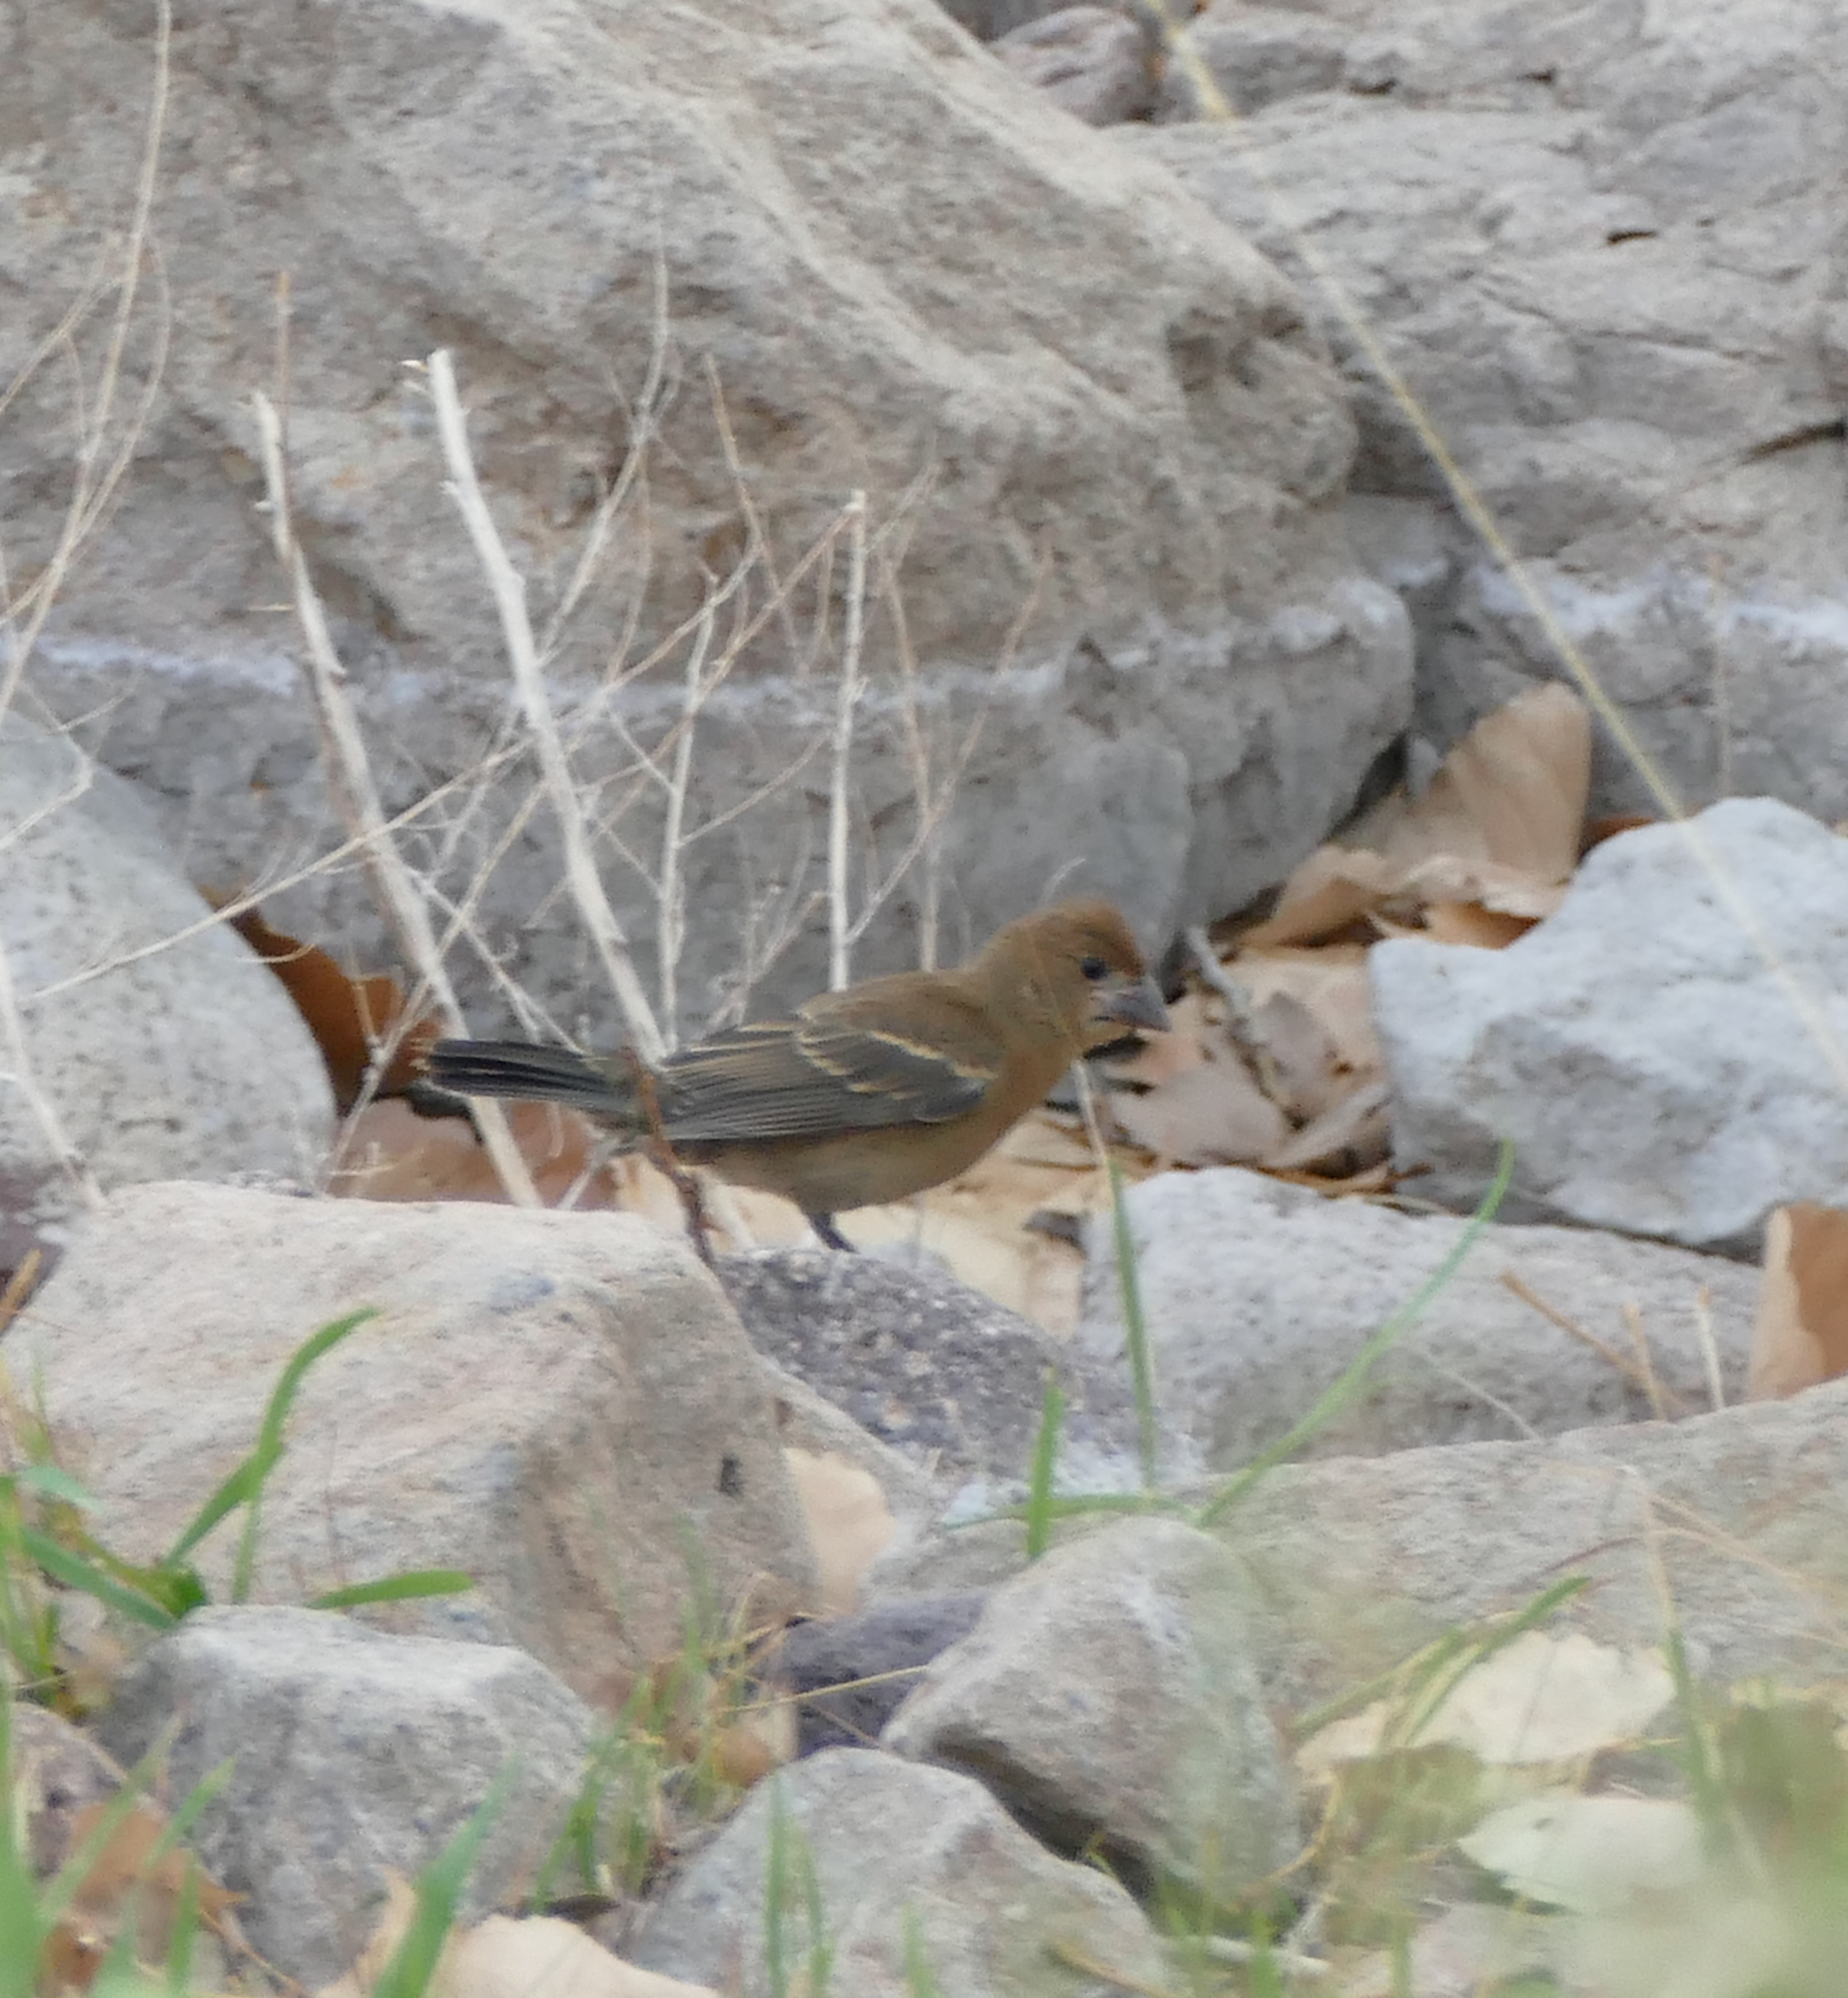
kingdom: Animalia
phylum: Chordata
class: Aves
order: Passeriformes
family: Cardinalidae
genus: Passerina
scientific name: Passerina caerulea
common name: Blue grosbeak
